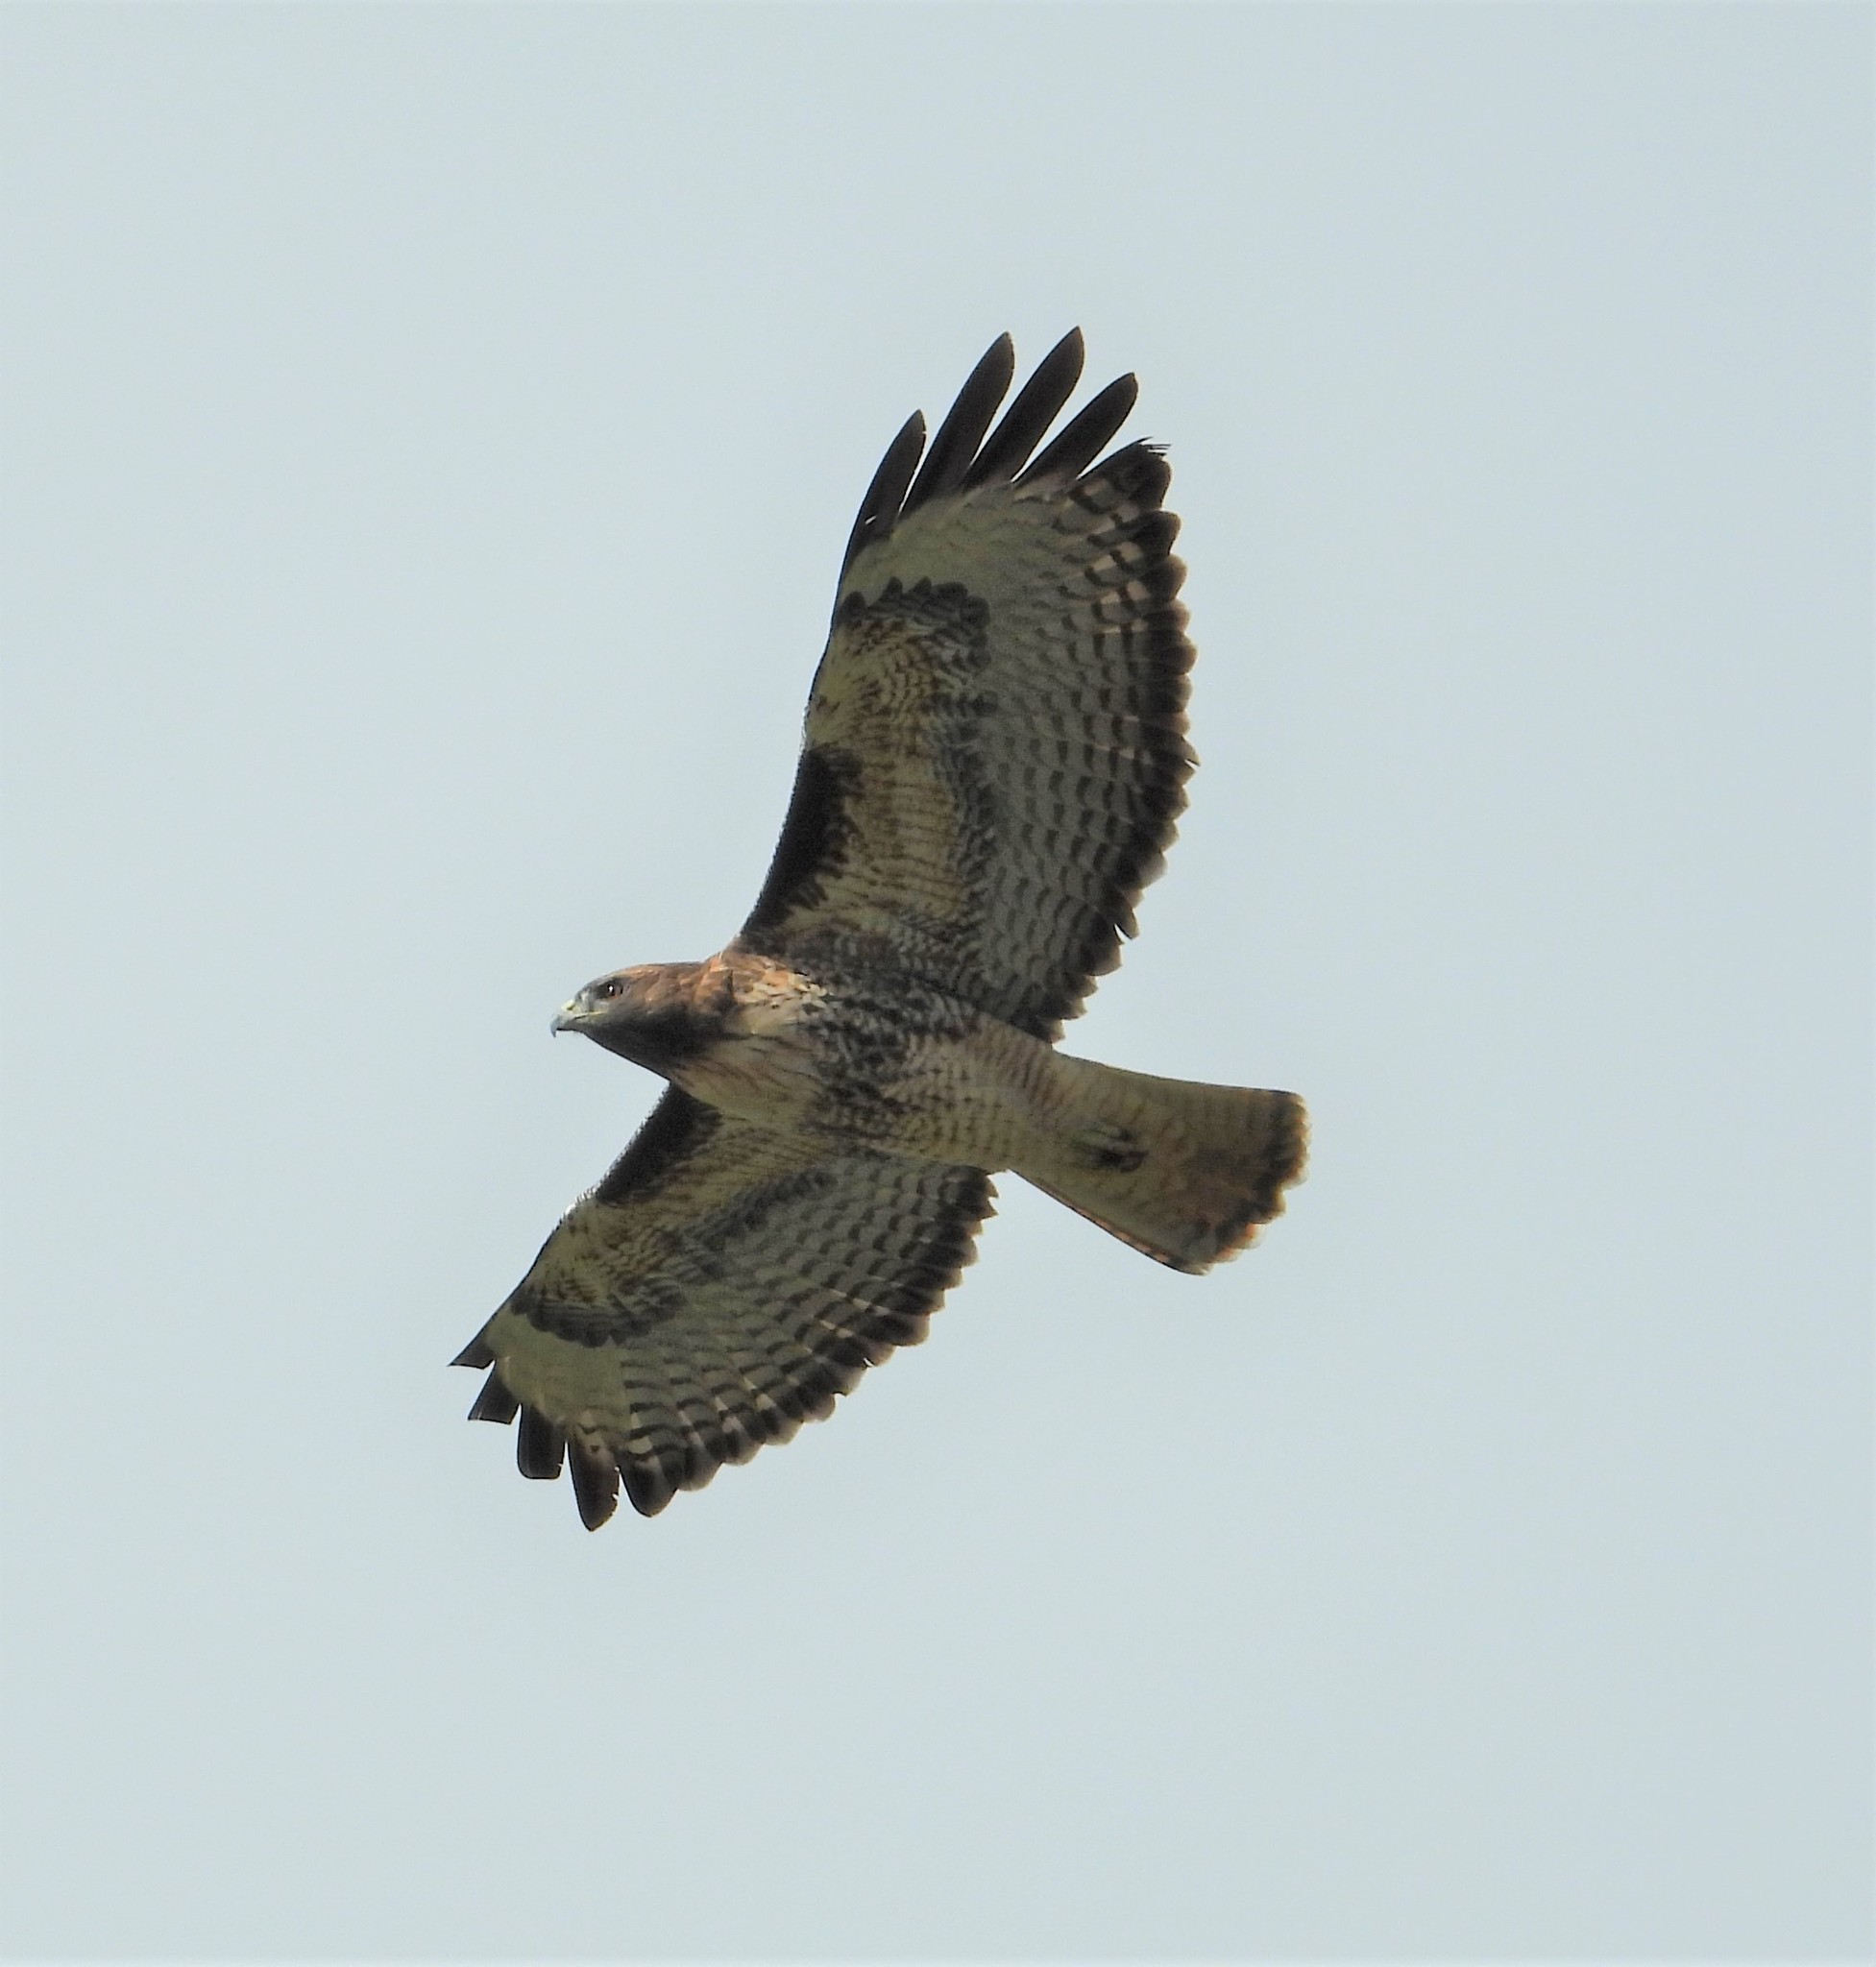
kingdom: Animalia
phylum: Chordata
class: Aves
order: Accipitriformes
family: Accipitridae
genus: Buteo
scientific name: Buteo jamaicensis
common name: Red-tailed hawk
